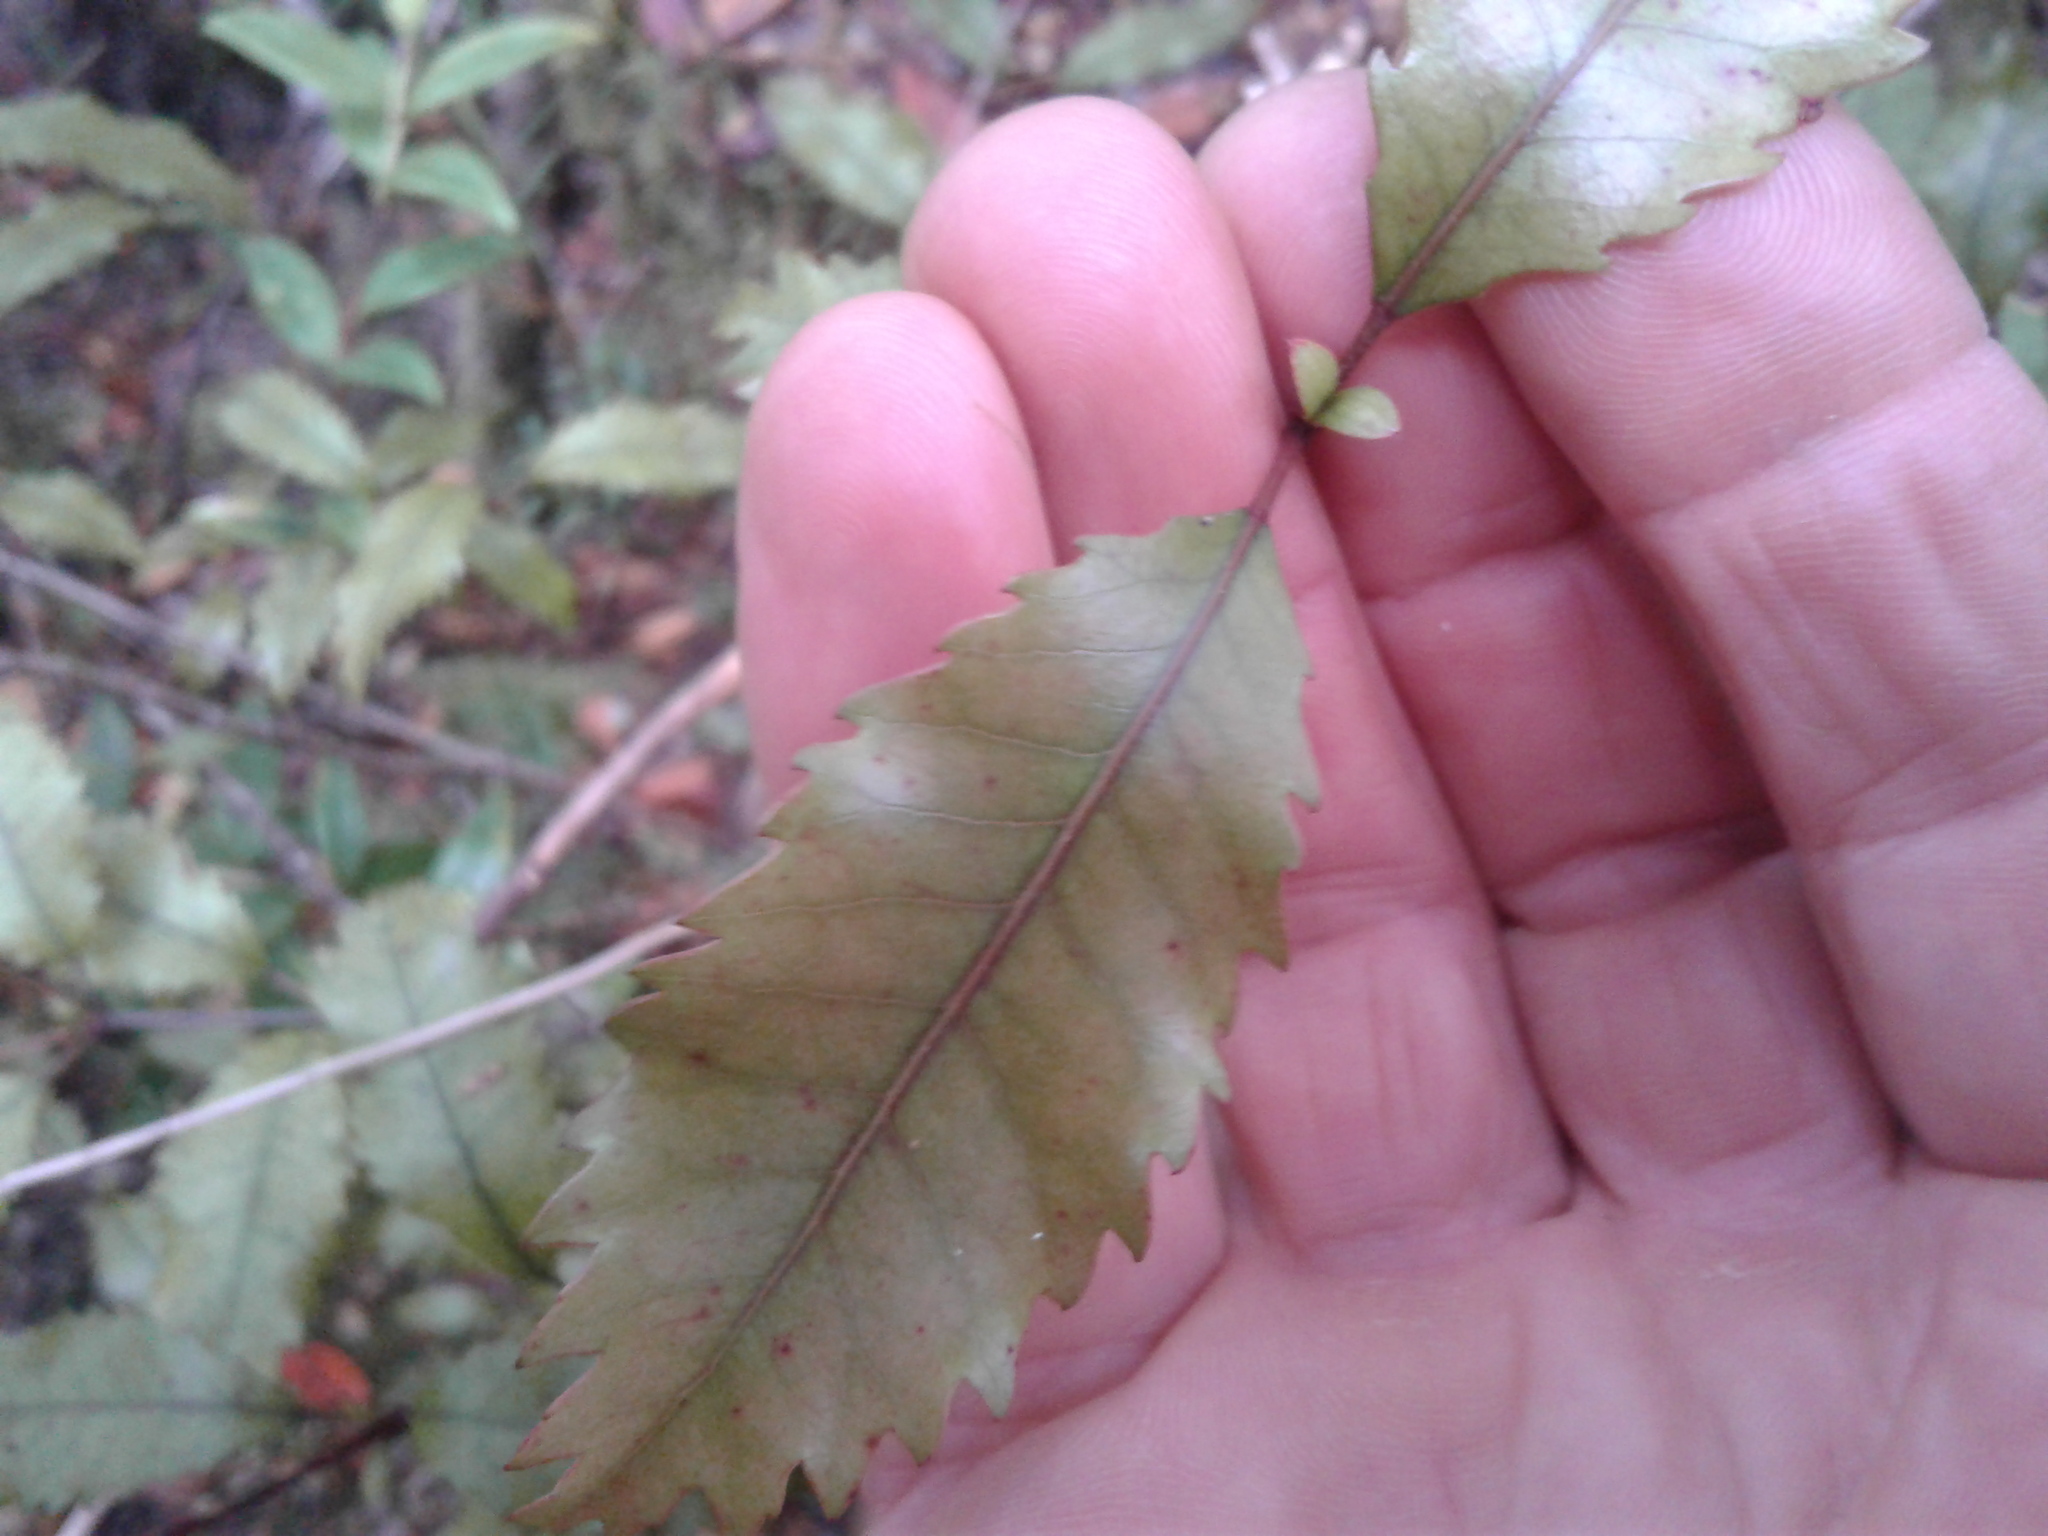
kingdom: Plantae
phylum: Tracheophyta
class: Magnoliopsida
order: Oxalidales
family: Cunoniaceae
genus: Pterophylla
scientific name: Pterophylla racemosa
